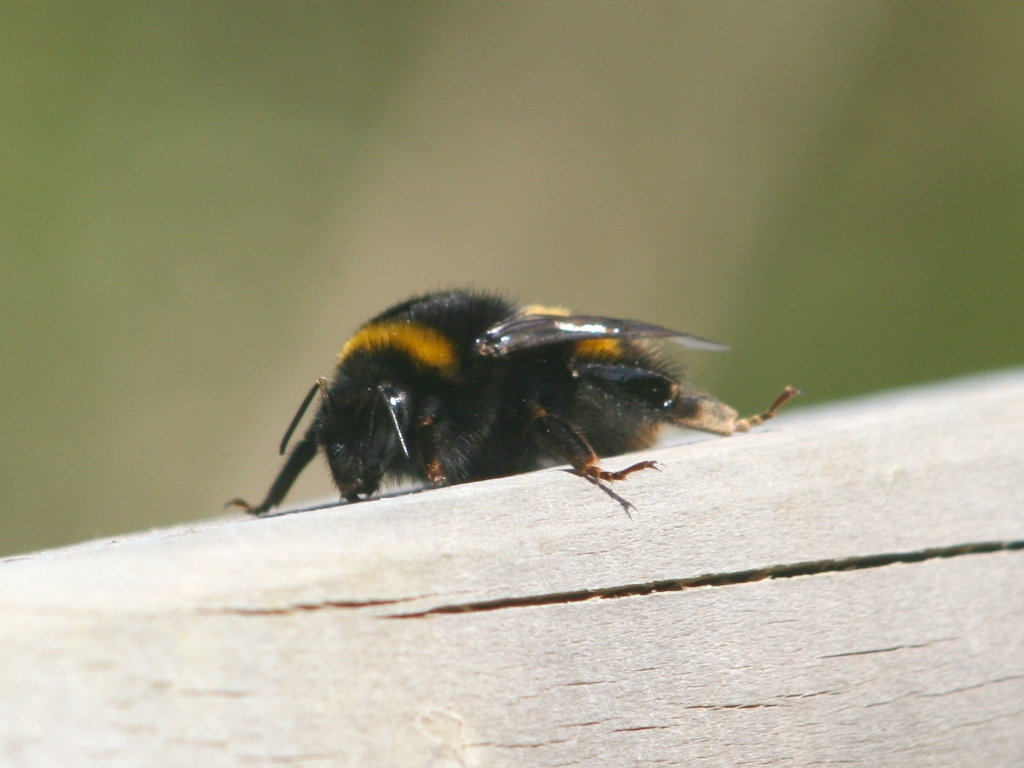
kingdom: Animalia
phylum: Arthropoda
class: Insecta
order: Hymenoptera
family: Apidae
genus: Bombus
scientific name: Bombus terrestris
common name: Buff-tailed bumblebee
